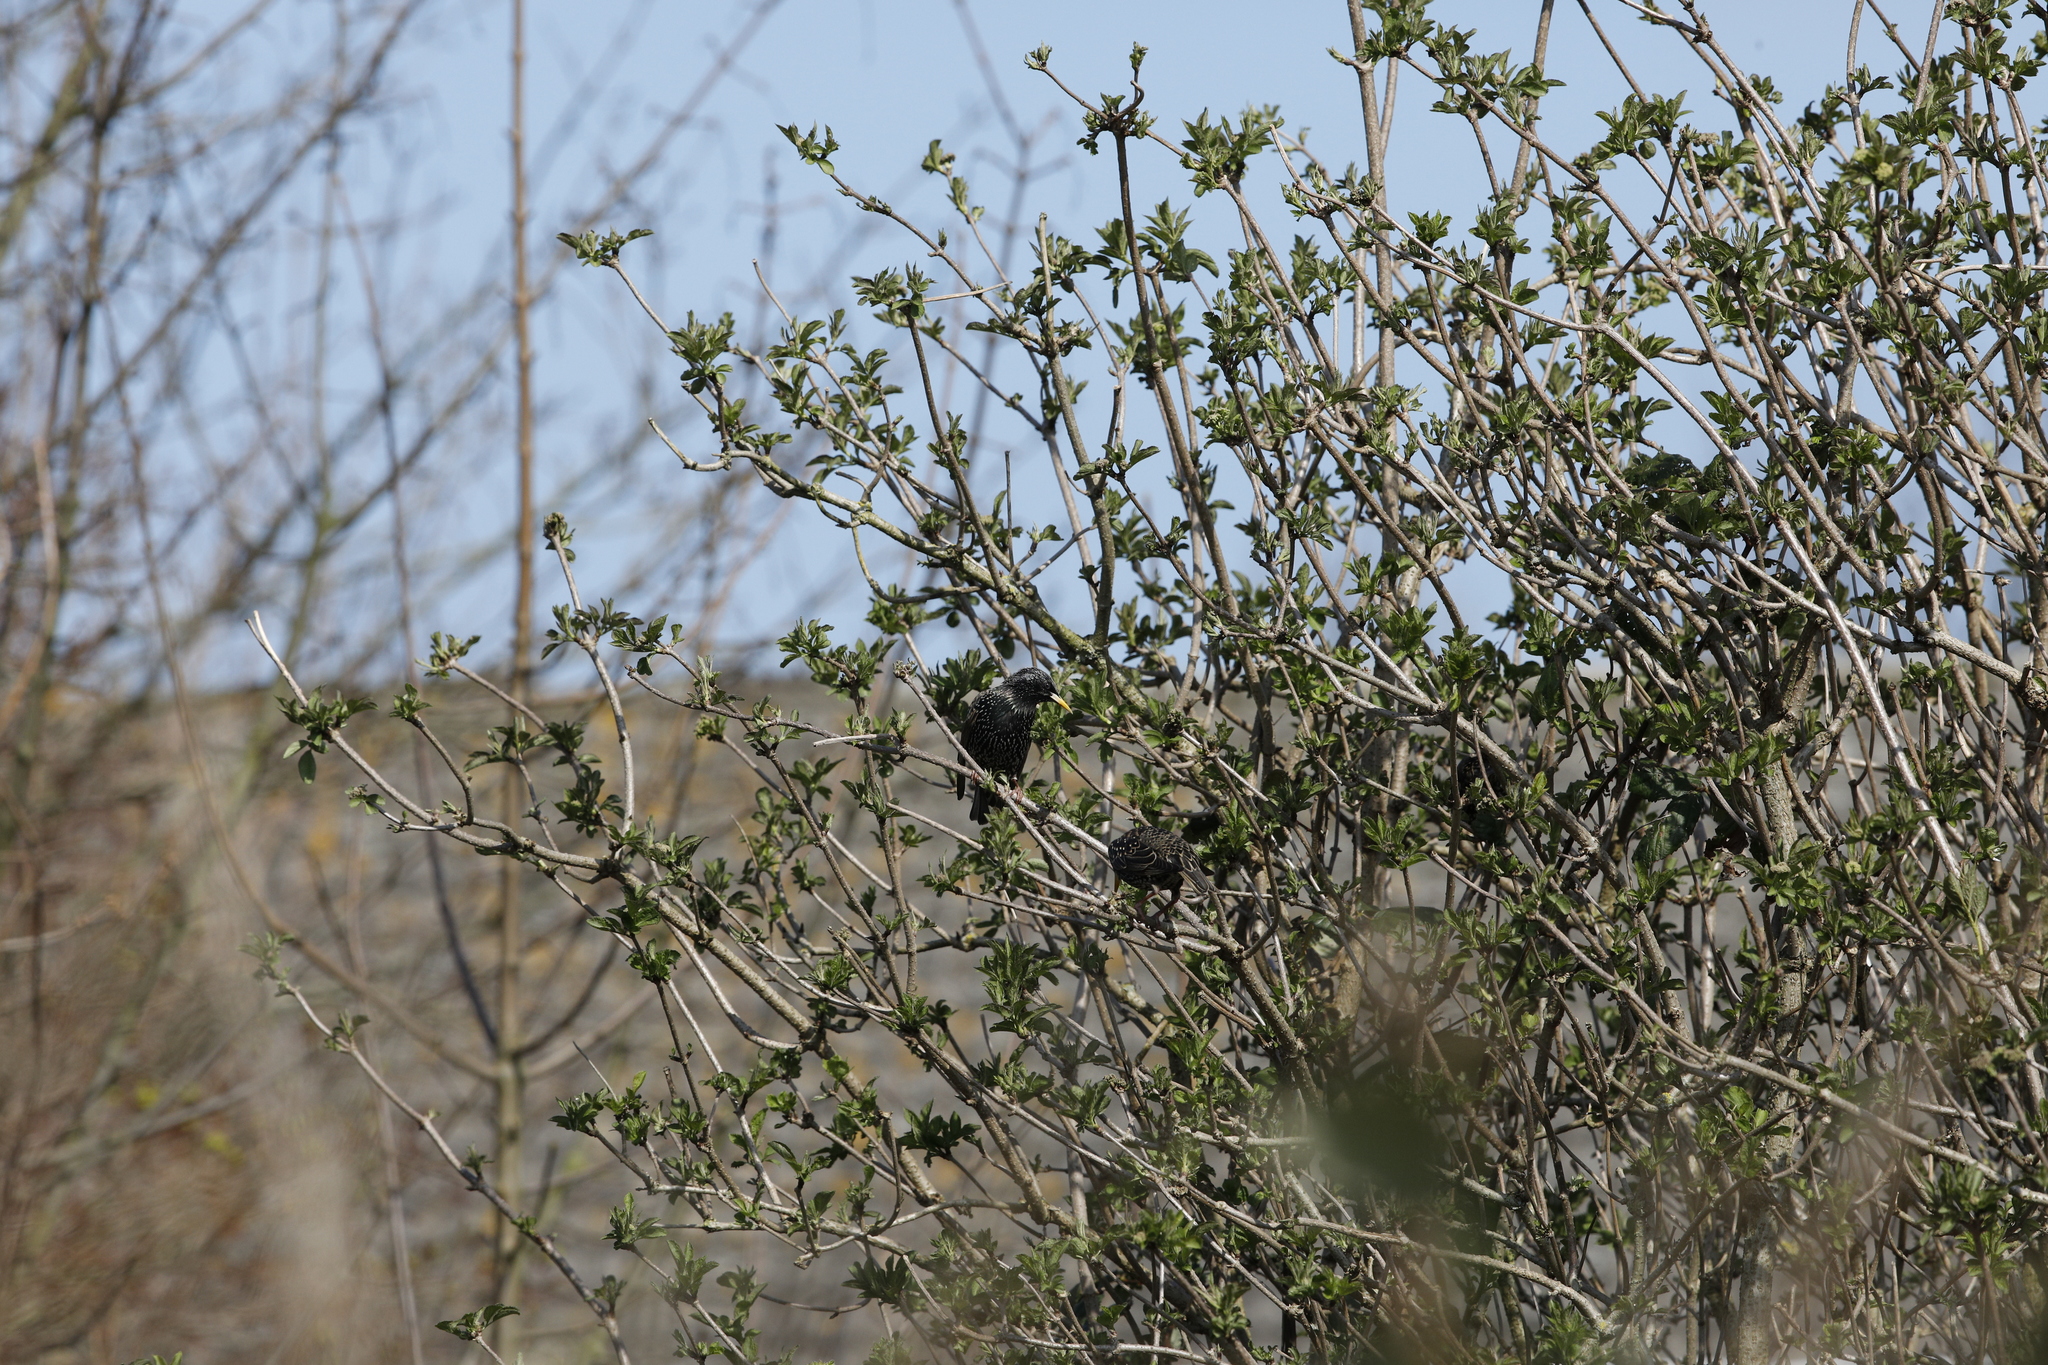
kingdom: Animalia
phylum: Chordata
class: Aves
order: Passeriformes
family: Sturnidae
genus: Sturnus
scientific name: Sturnus vulgaris
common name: Common starling
